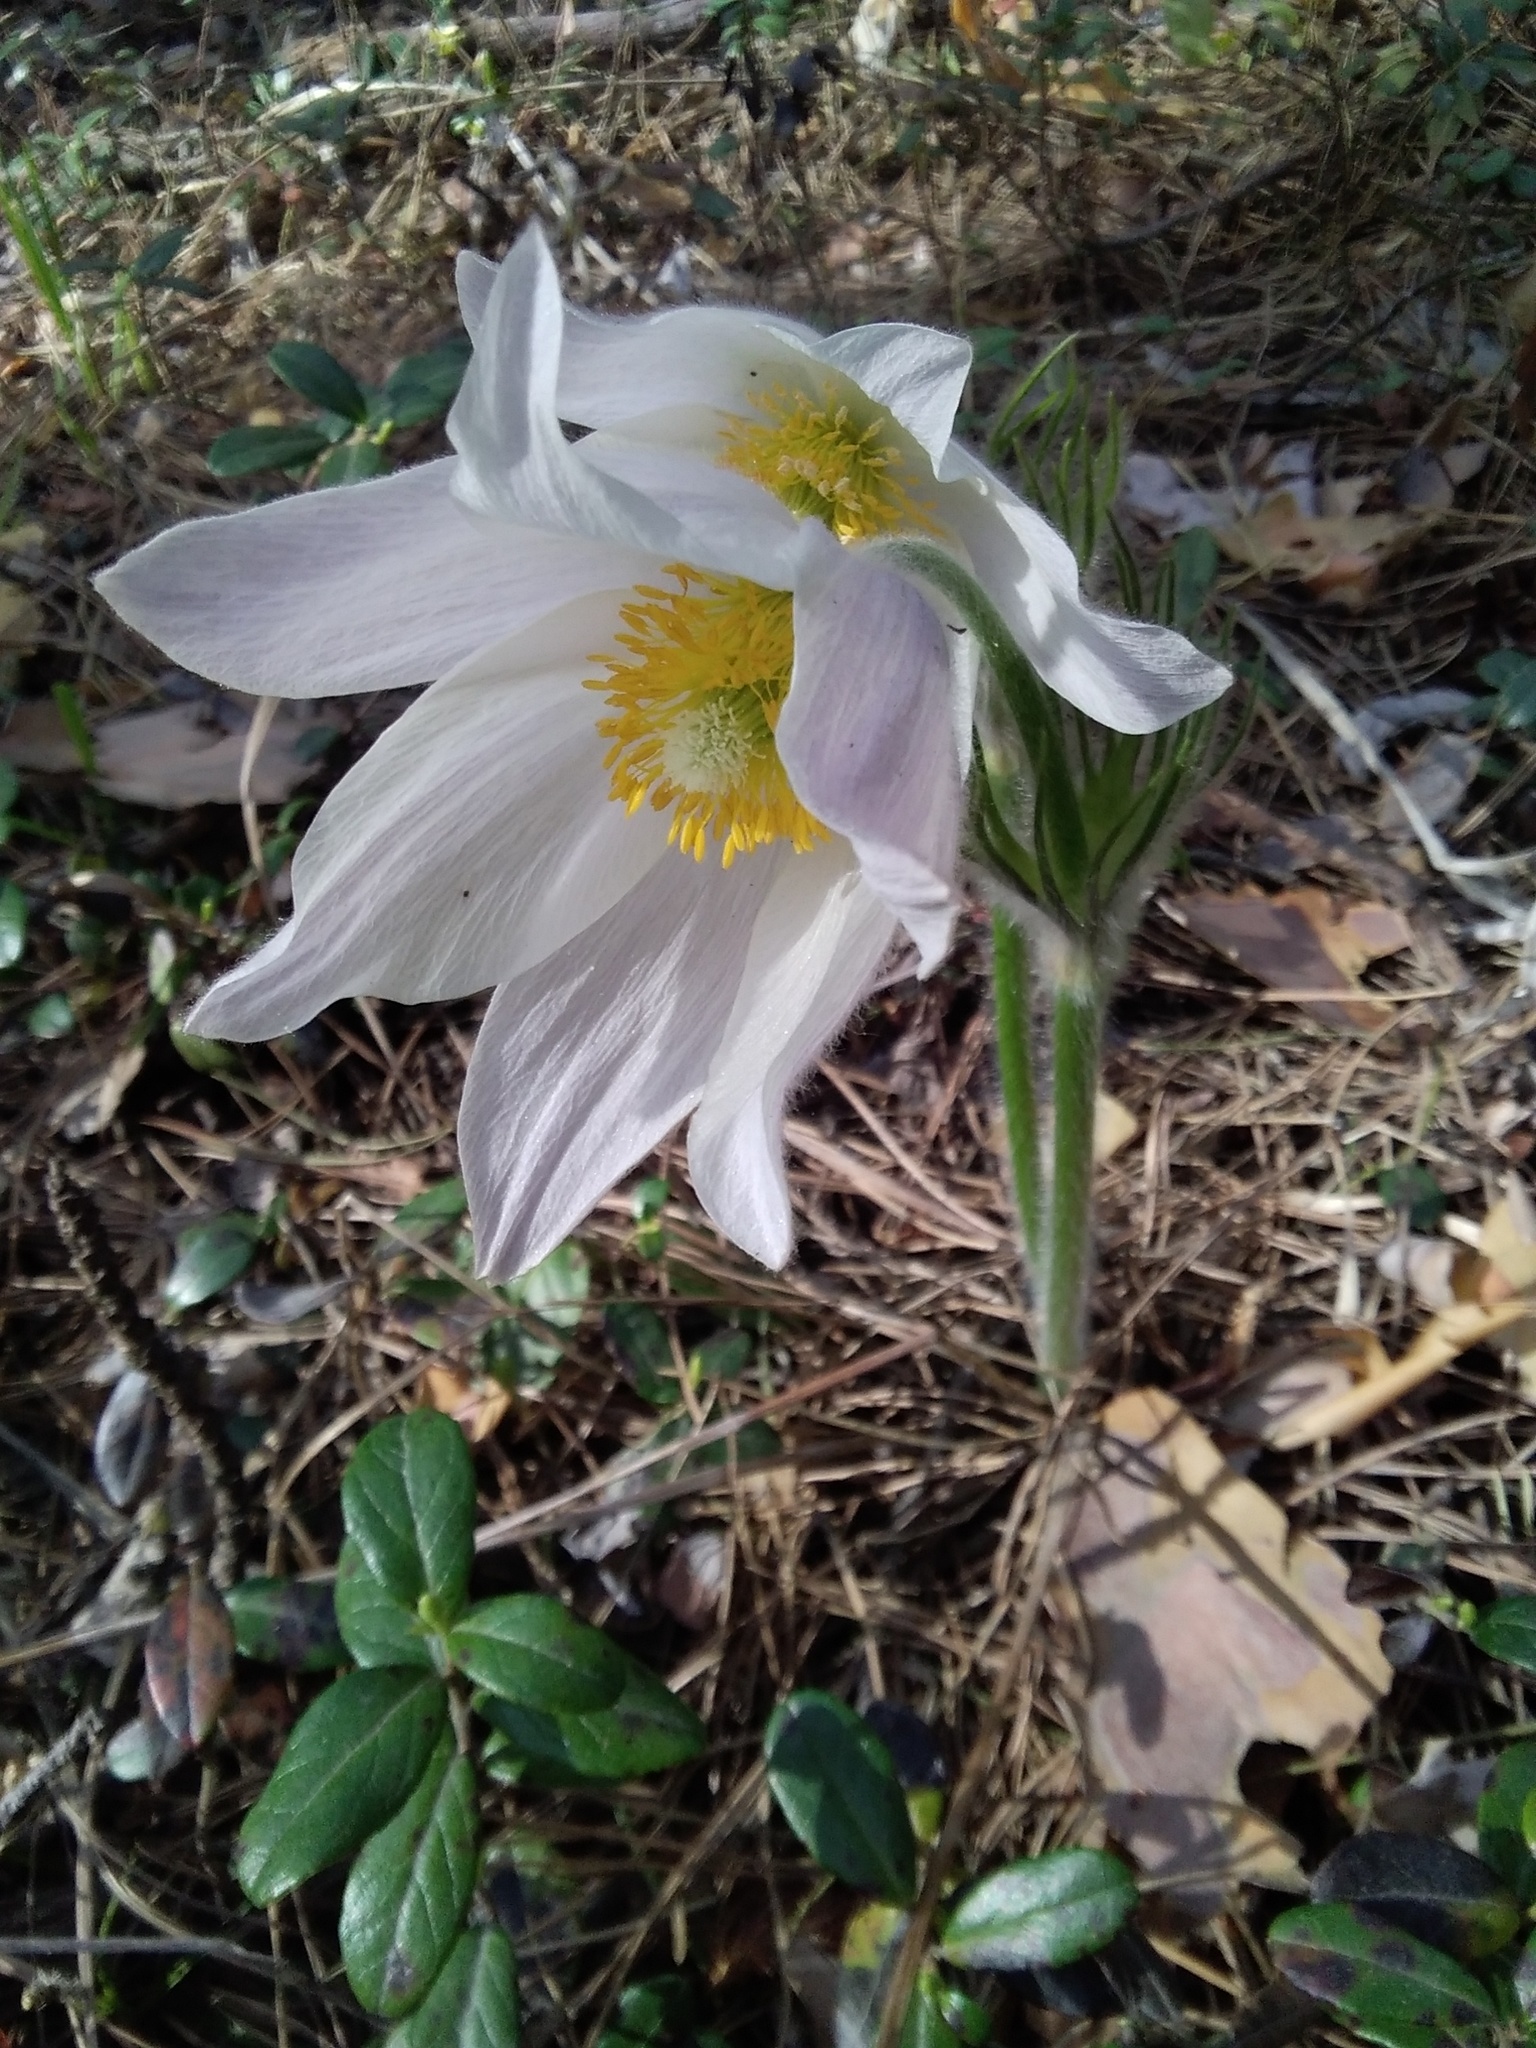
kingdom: Plantae
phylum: Tracheophyta
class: Magnoliopsida
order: Ranunculales
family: Ranunculaceae
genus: Pulsatilla
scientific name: Pulsatilla patens
